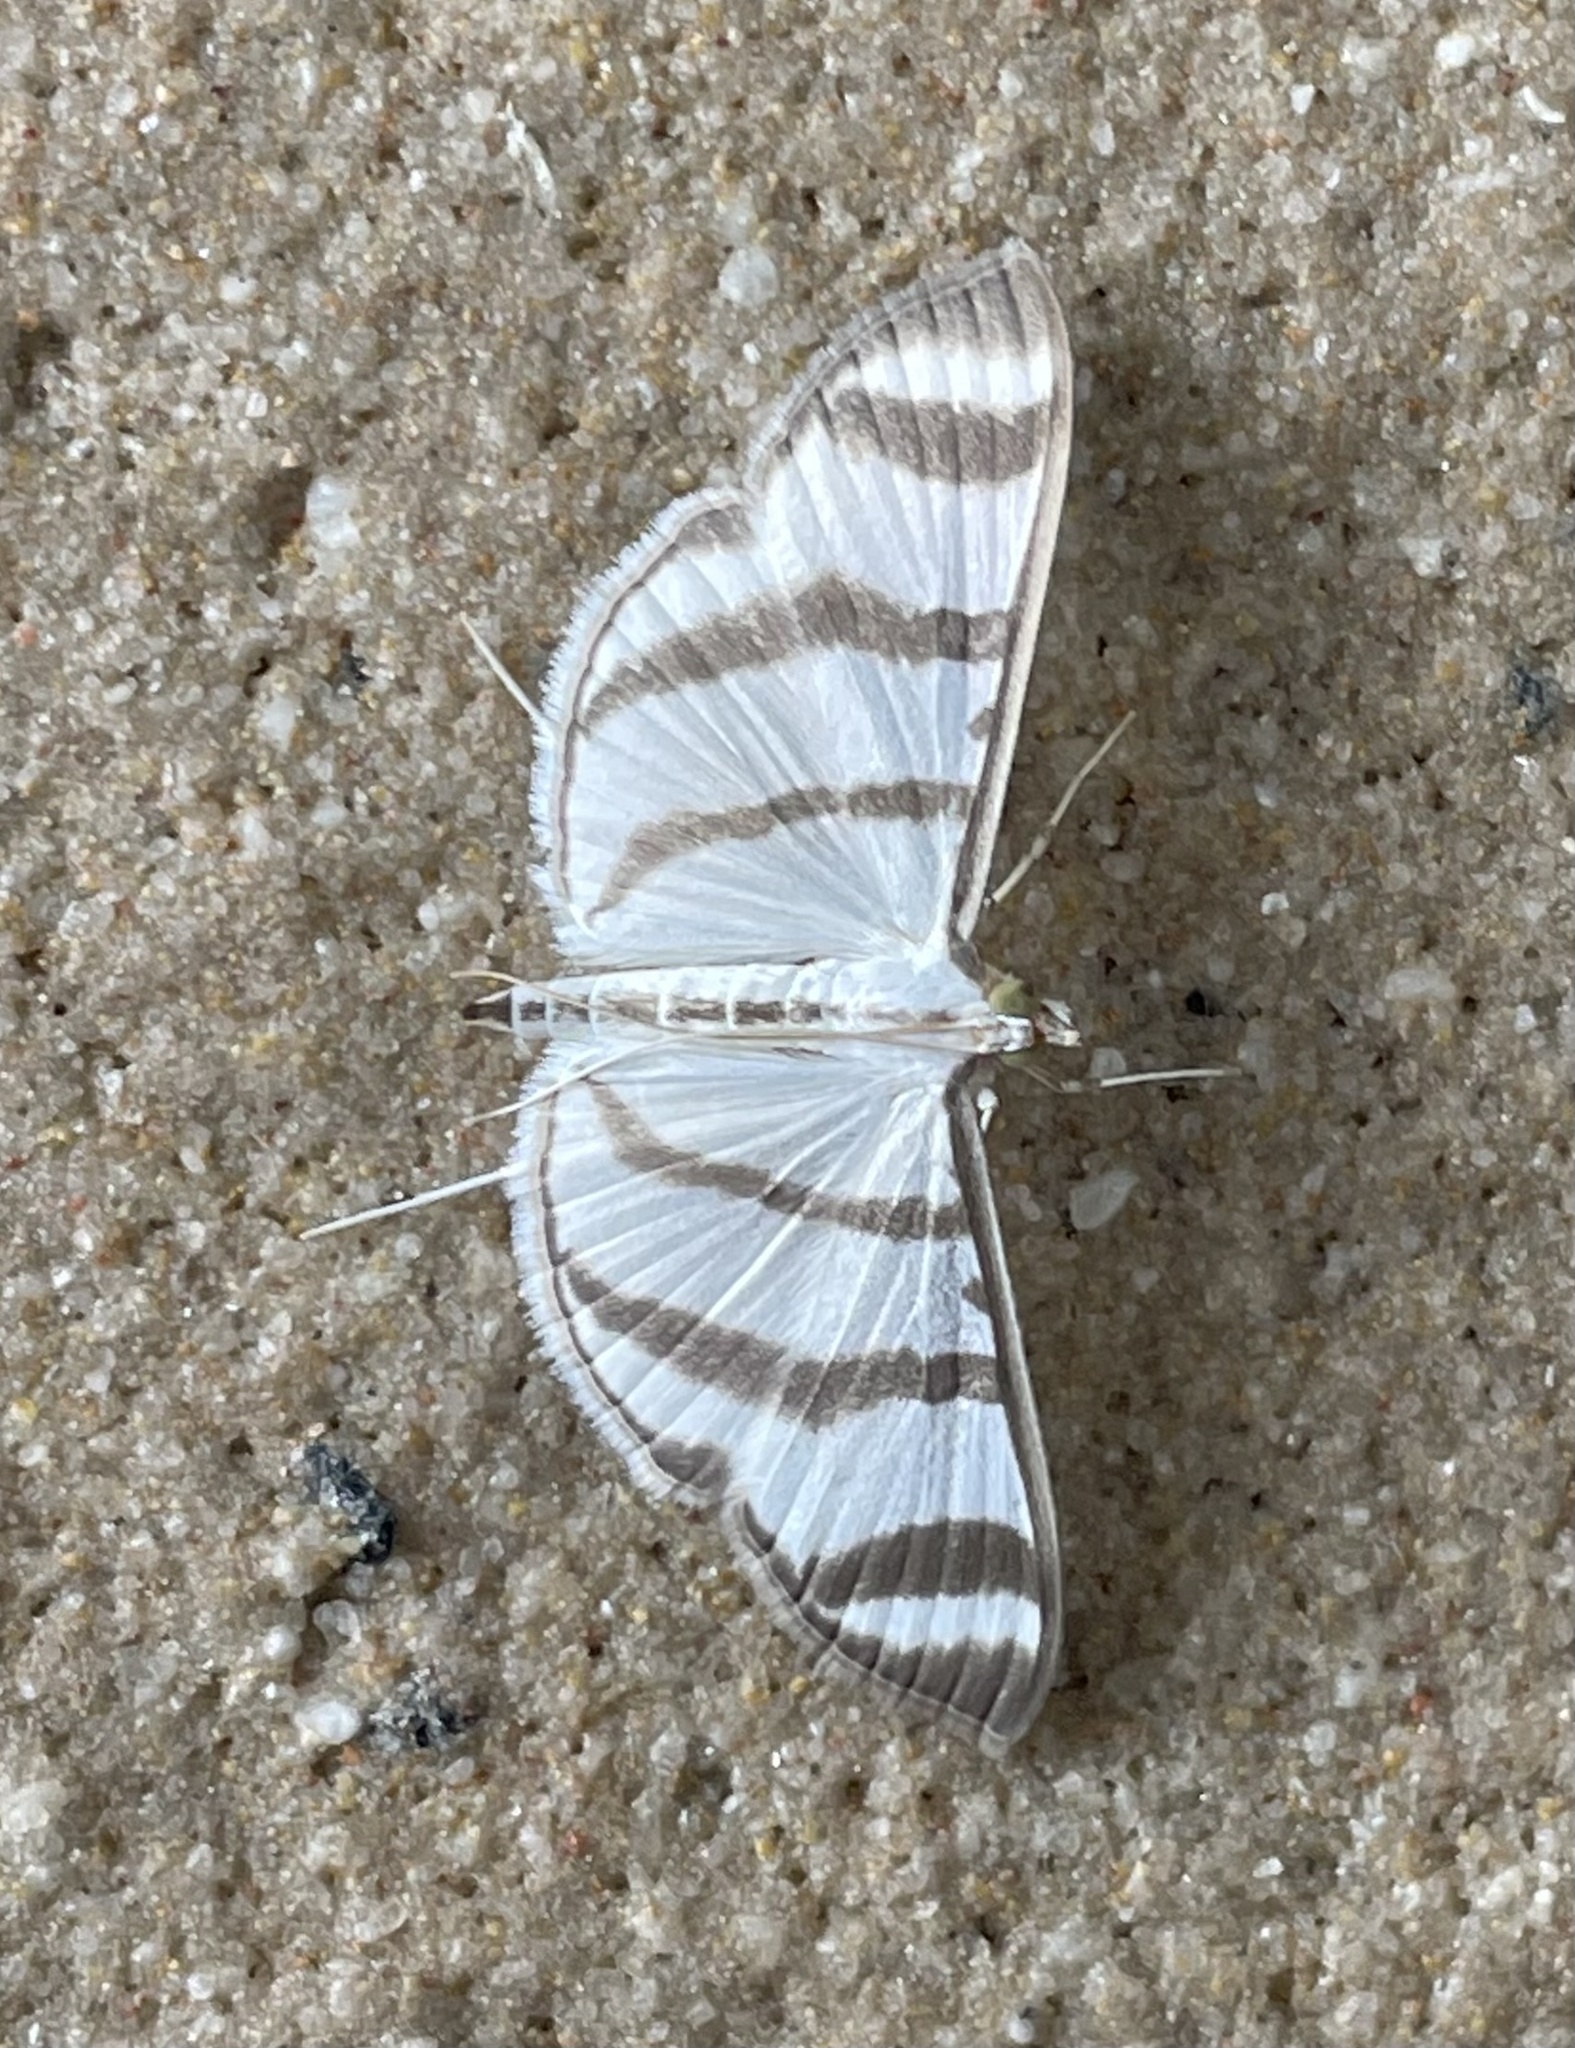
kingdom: Animalia
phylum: Arthropoda
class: Insecta
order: Lepidoptera
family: Crambidae
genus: Zebronia
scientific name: Zebronia phenice
